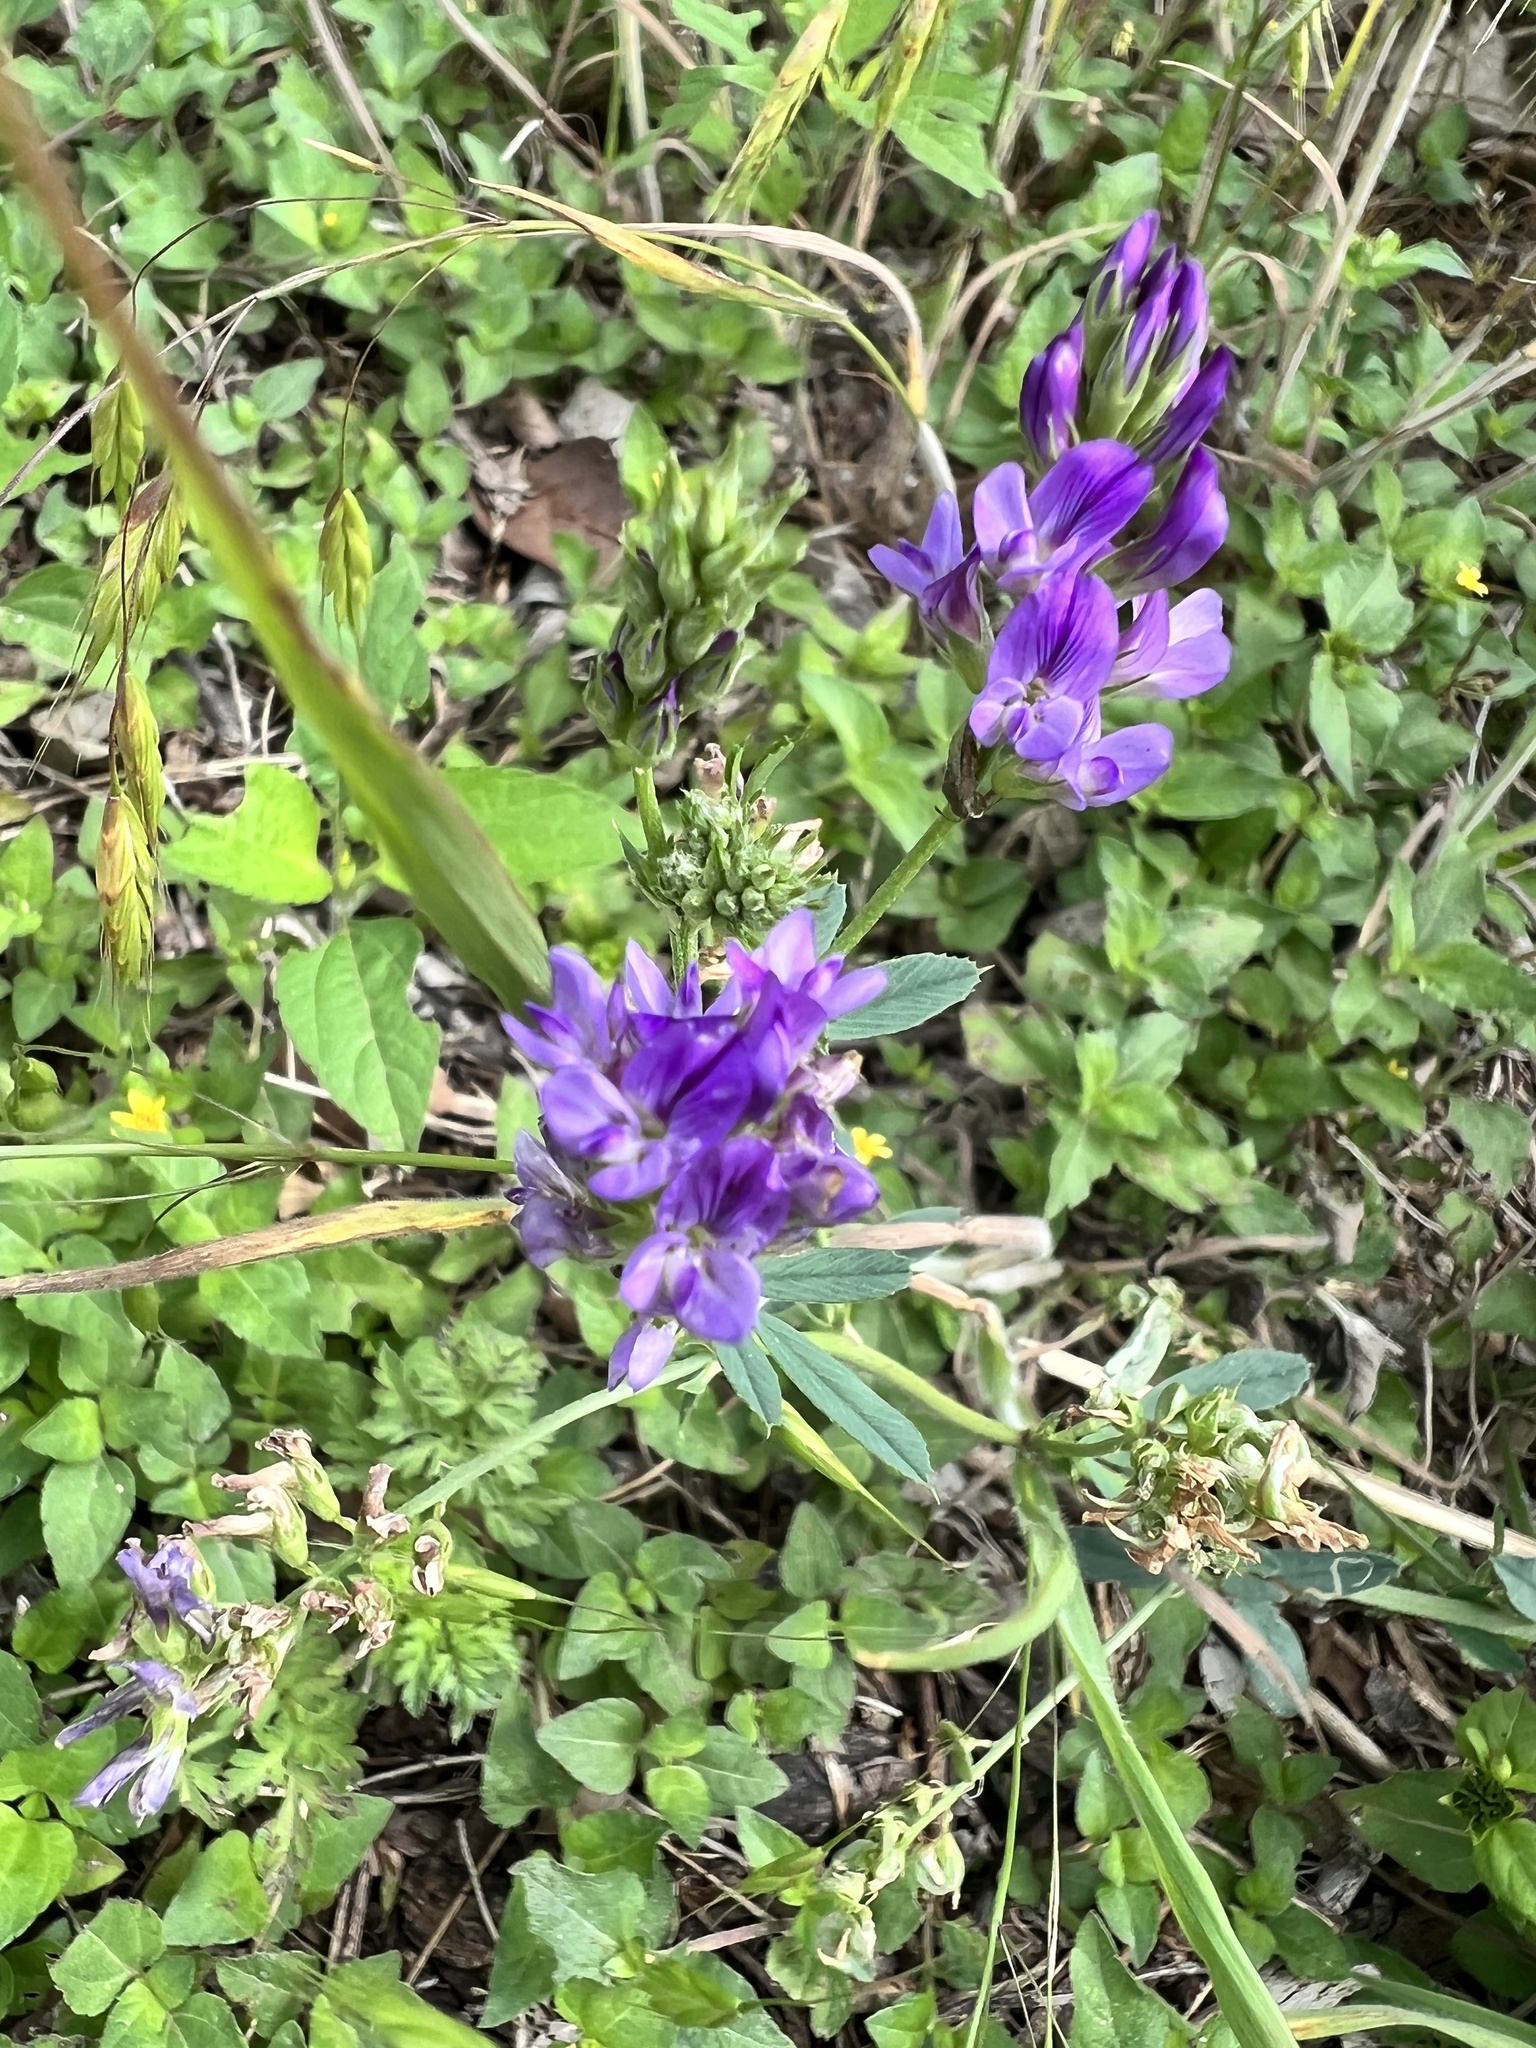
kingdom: Plantae
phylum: Tracheophyta
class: Magnoliopsida
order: Fabales
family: Fabaceae
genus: Medicago
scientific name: Medicago sativa
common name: Alfalfa
